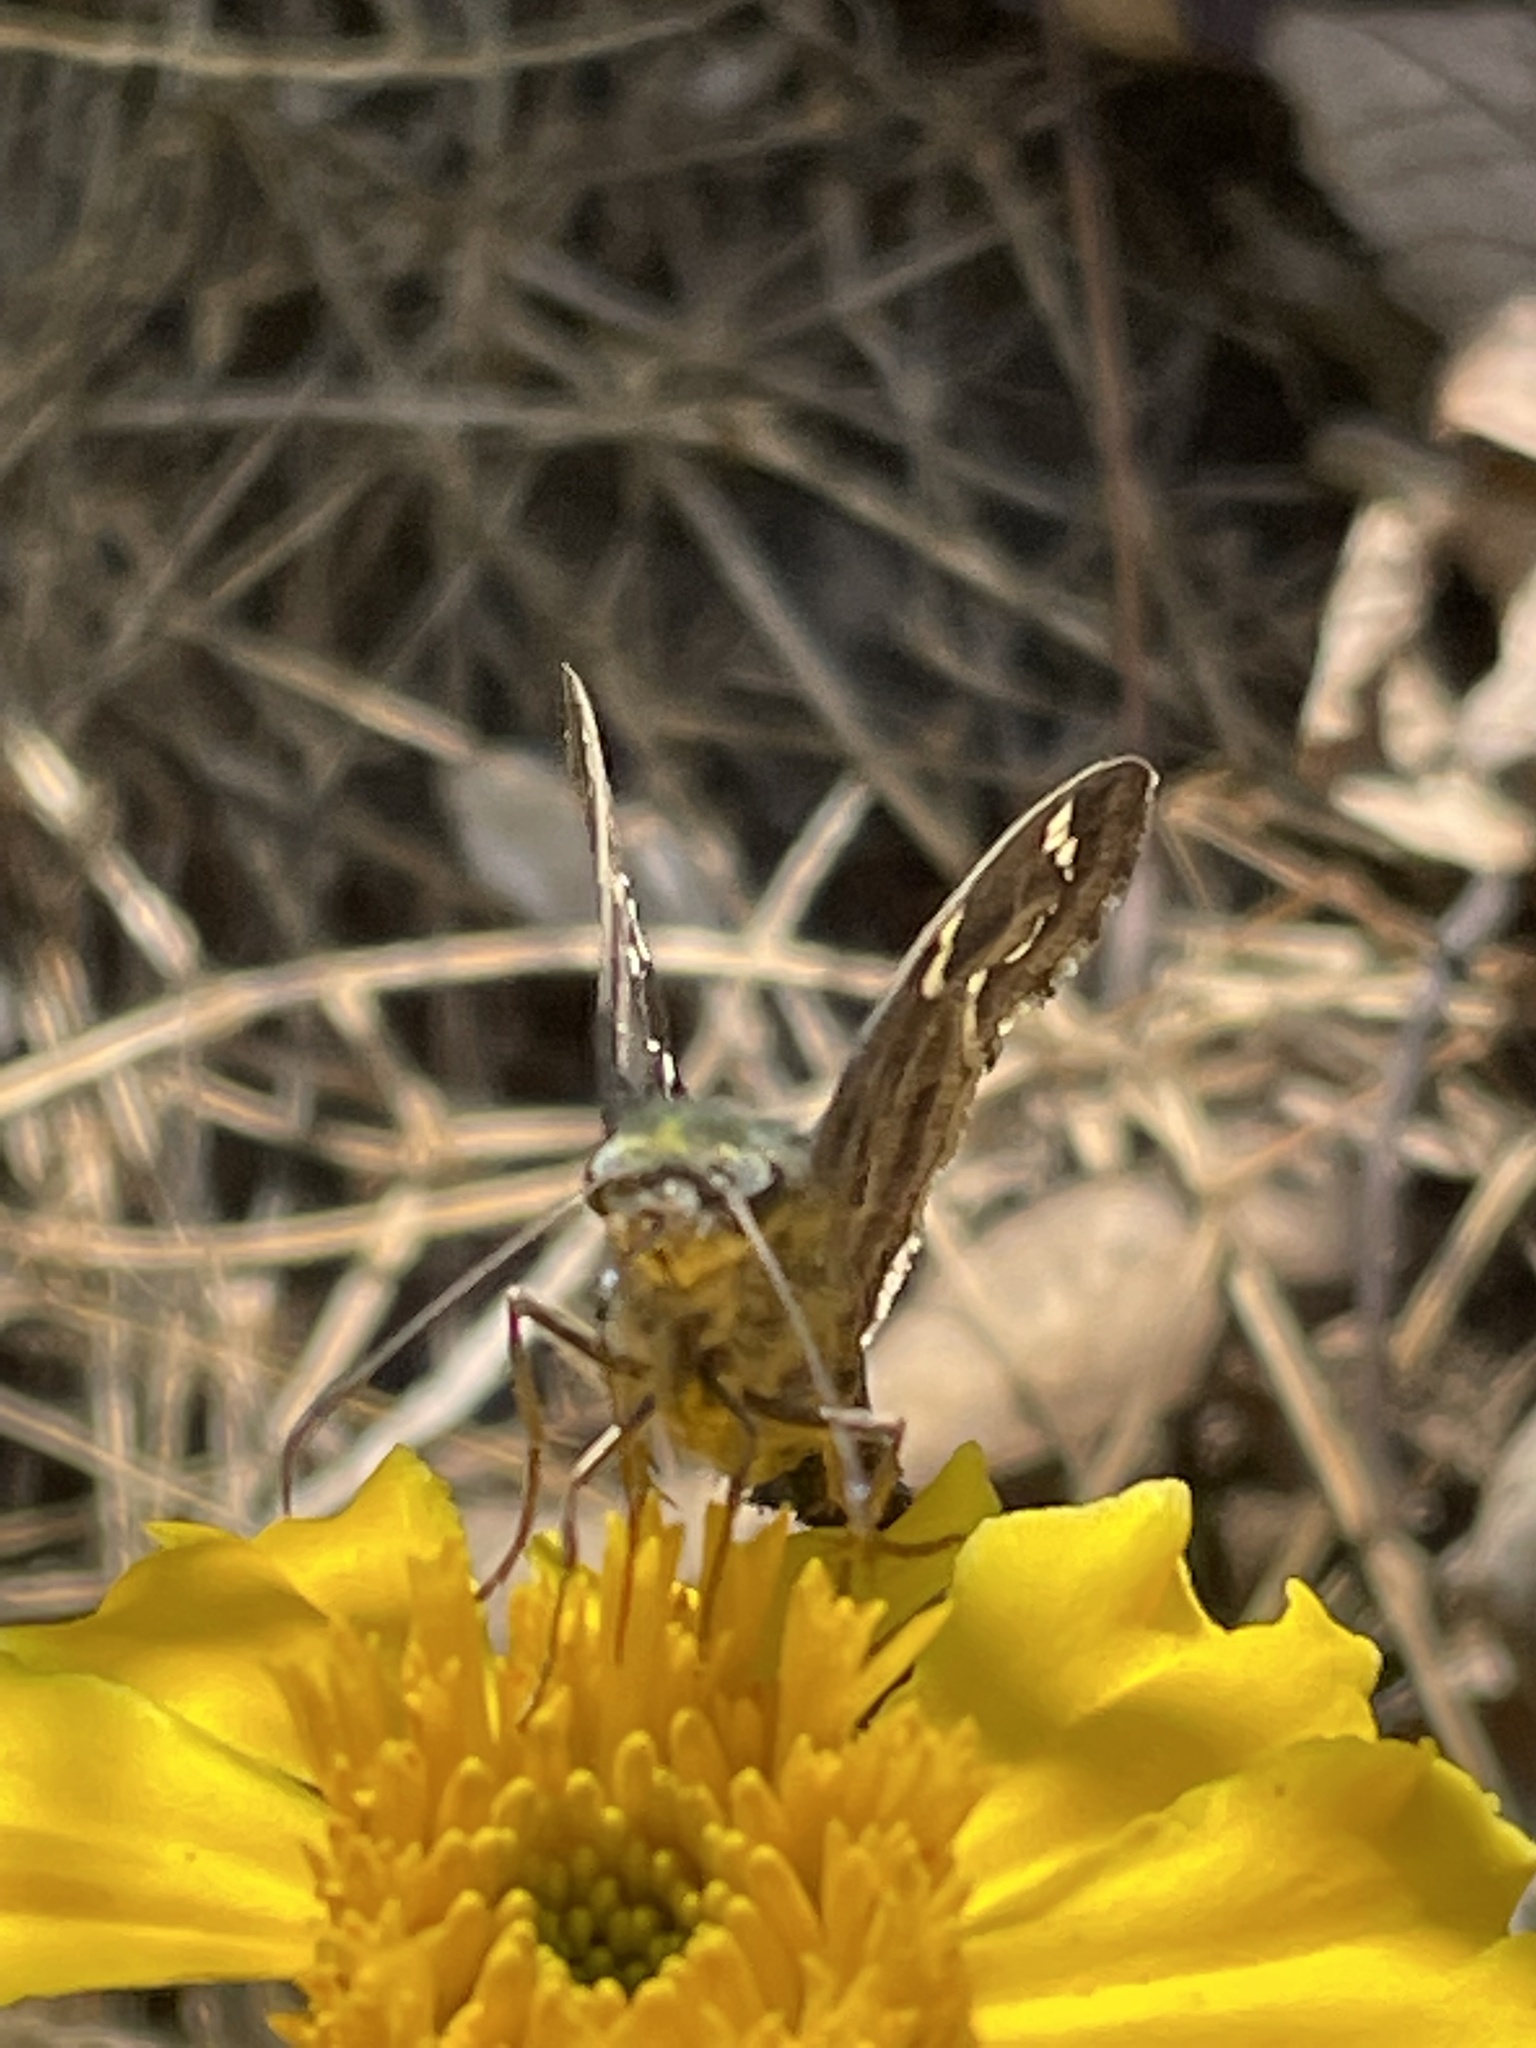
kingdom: Animalia
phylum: Arthropoda
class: Insecta
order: Lepidoptera
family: Hesperiidae
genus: Urbanus
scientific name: Urbanus proteus
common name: Long-tailed skipper
